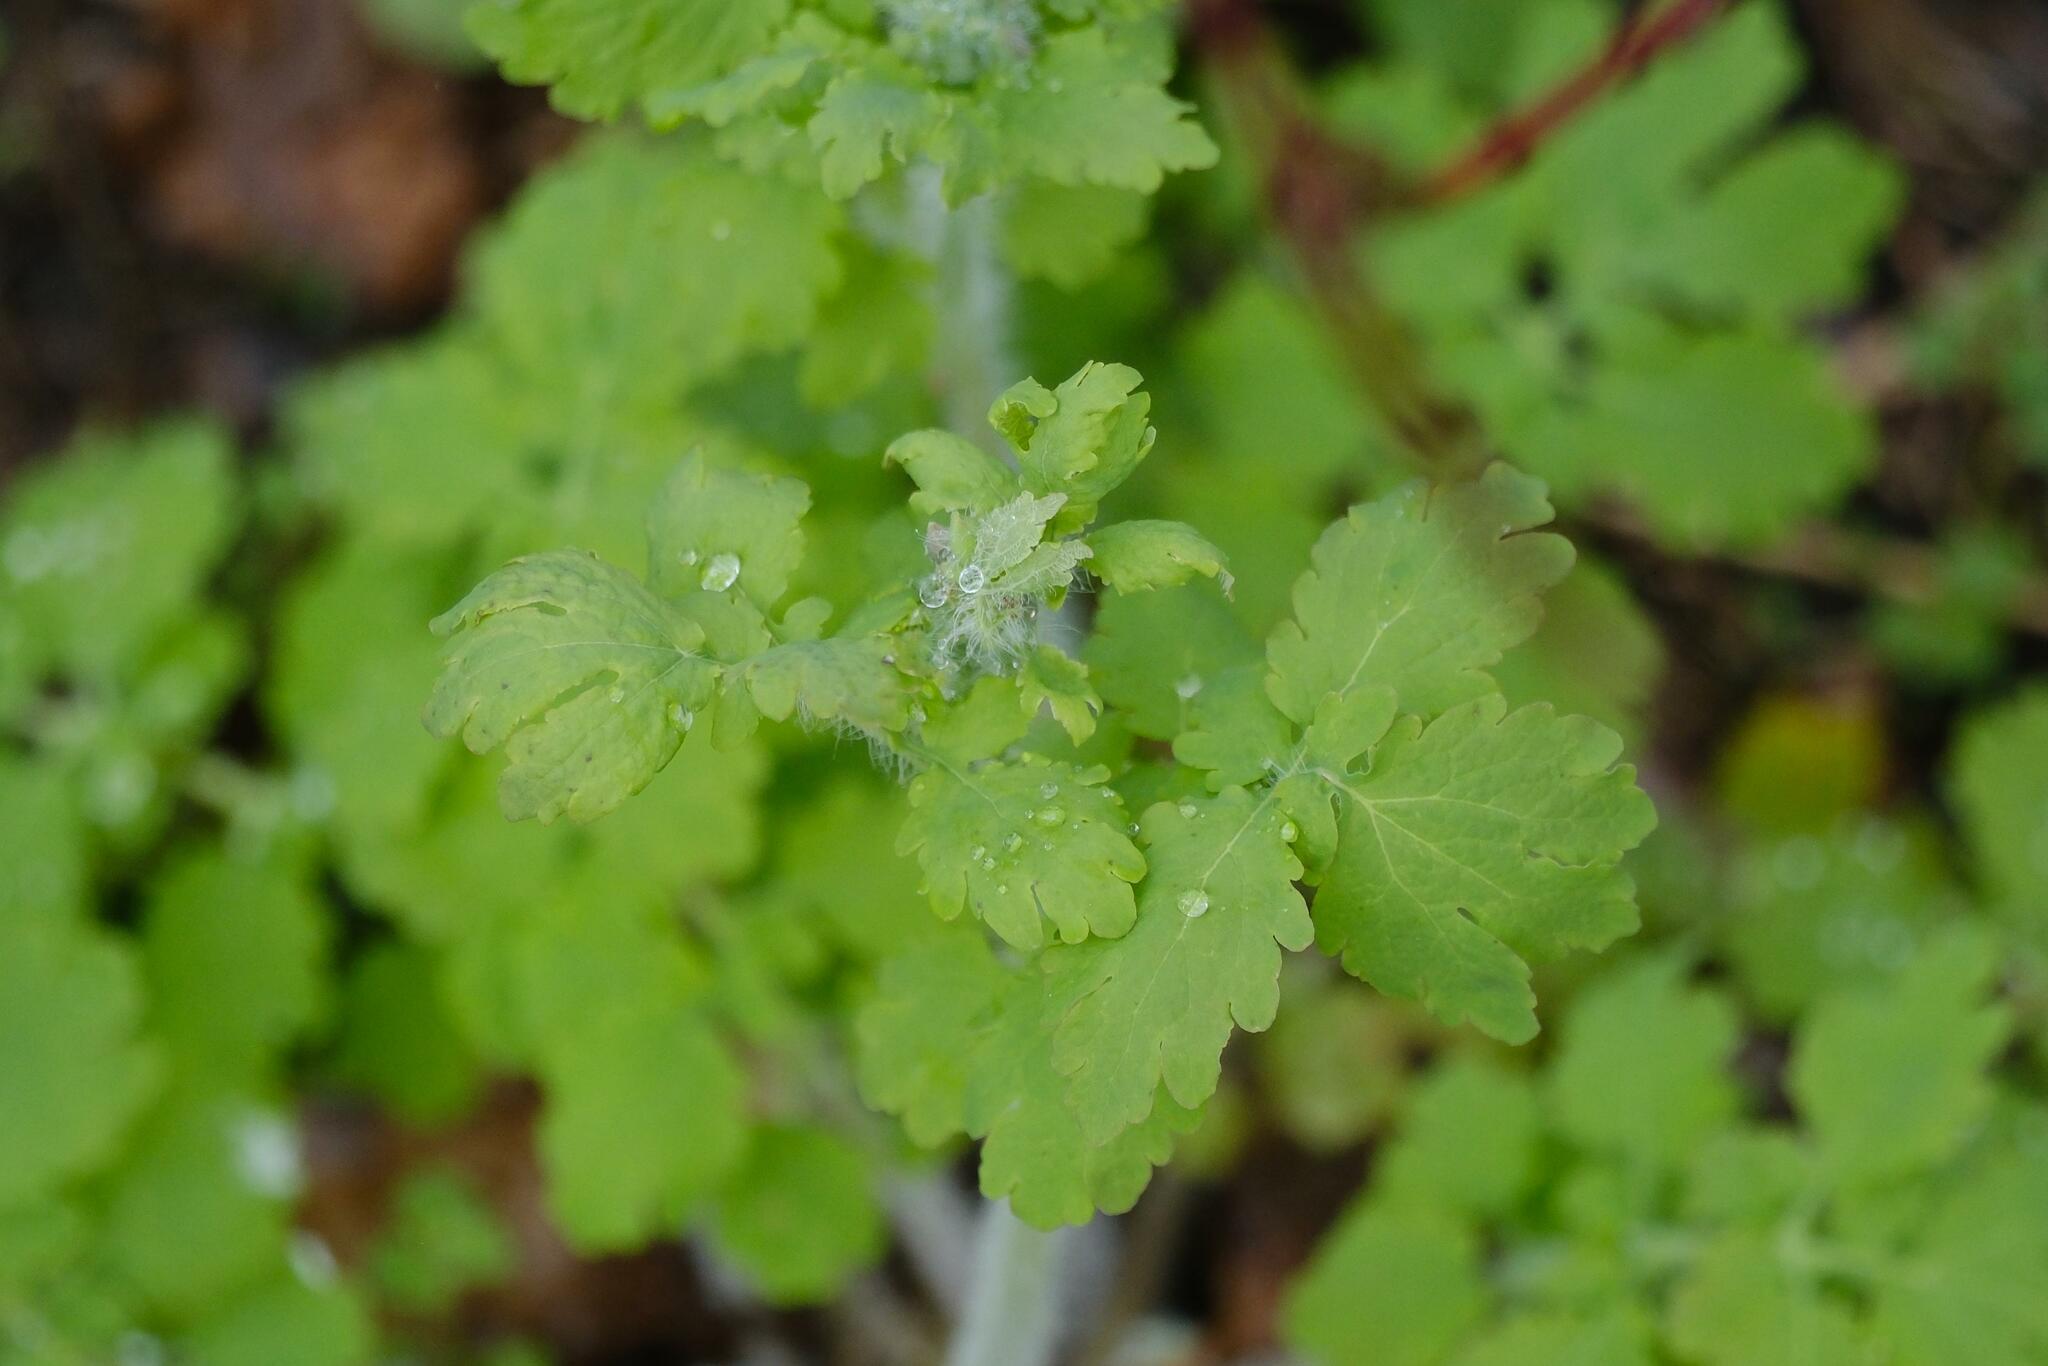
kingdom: Plantae
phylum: Tracheophyta
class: Magnoliopsida
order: Ranunculales
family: Papaveraceae
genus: Chelidonium
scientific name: Chelidonium majus
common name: Greater celandine
